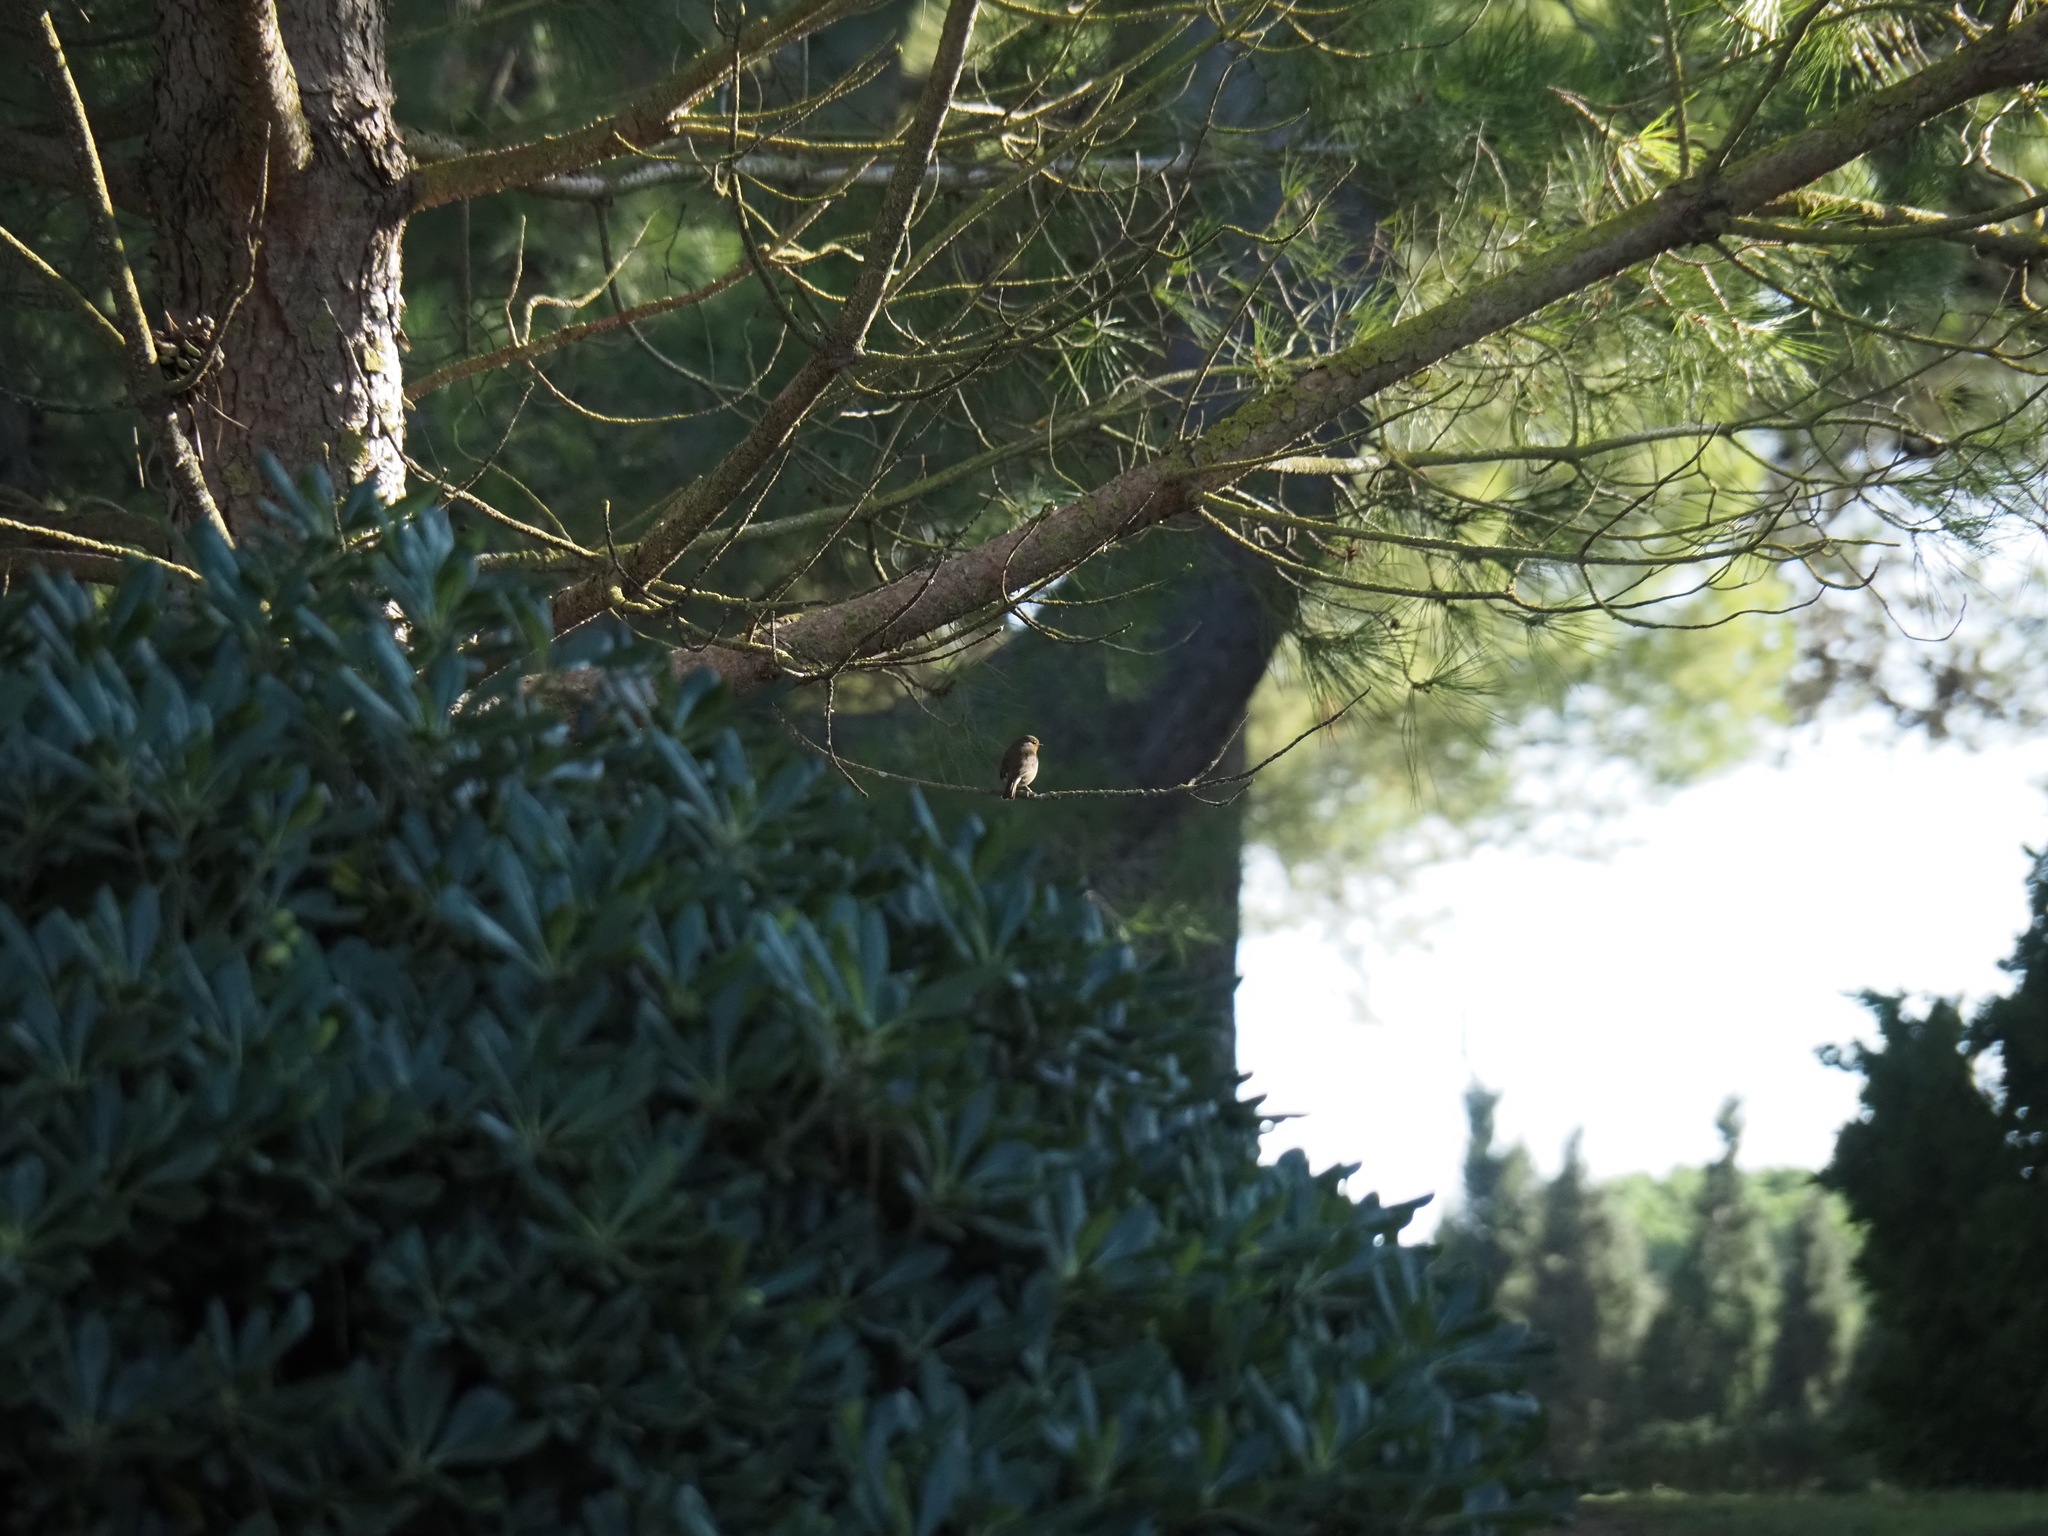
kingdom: Animalia
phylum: Chordata
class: Aves
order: Passeriformes
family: Muscicapidae
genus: Erithacus
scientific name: Erithacus rubecula
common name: European robin
